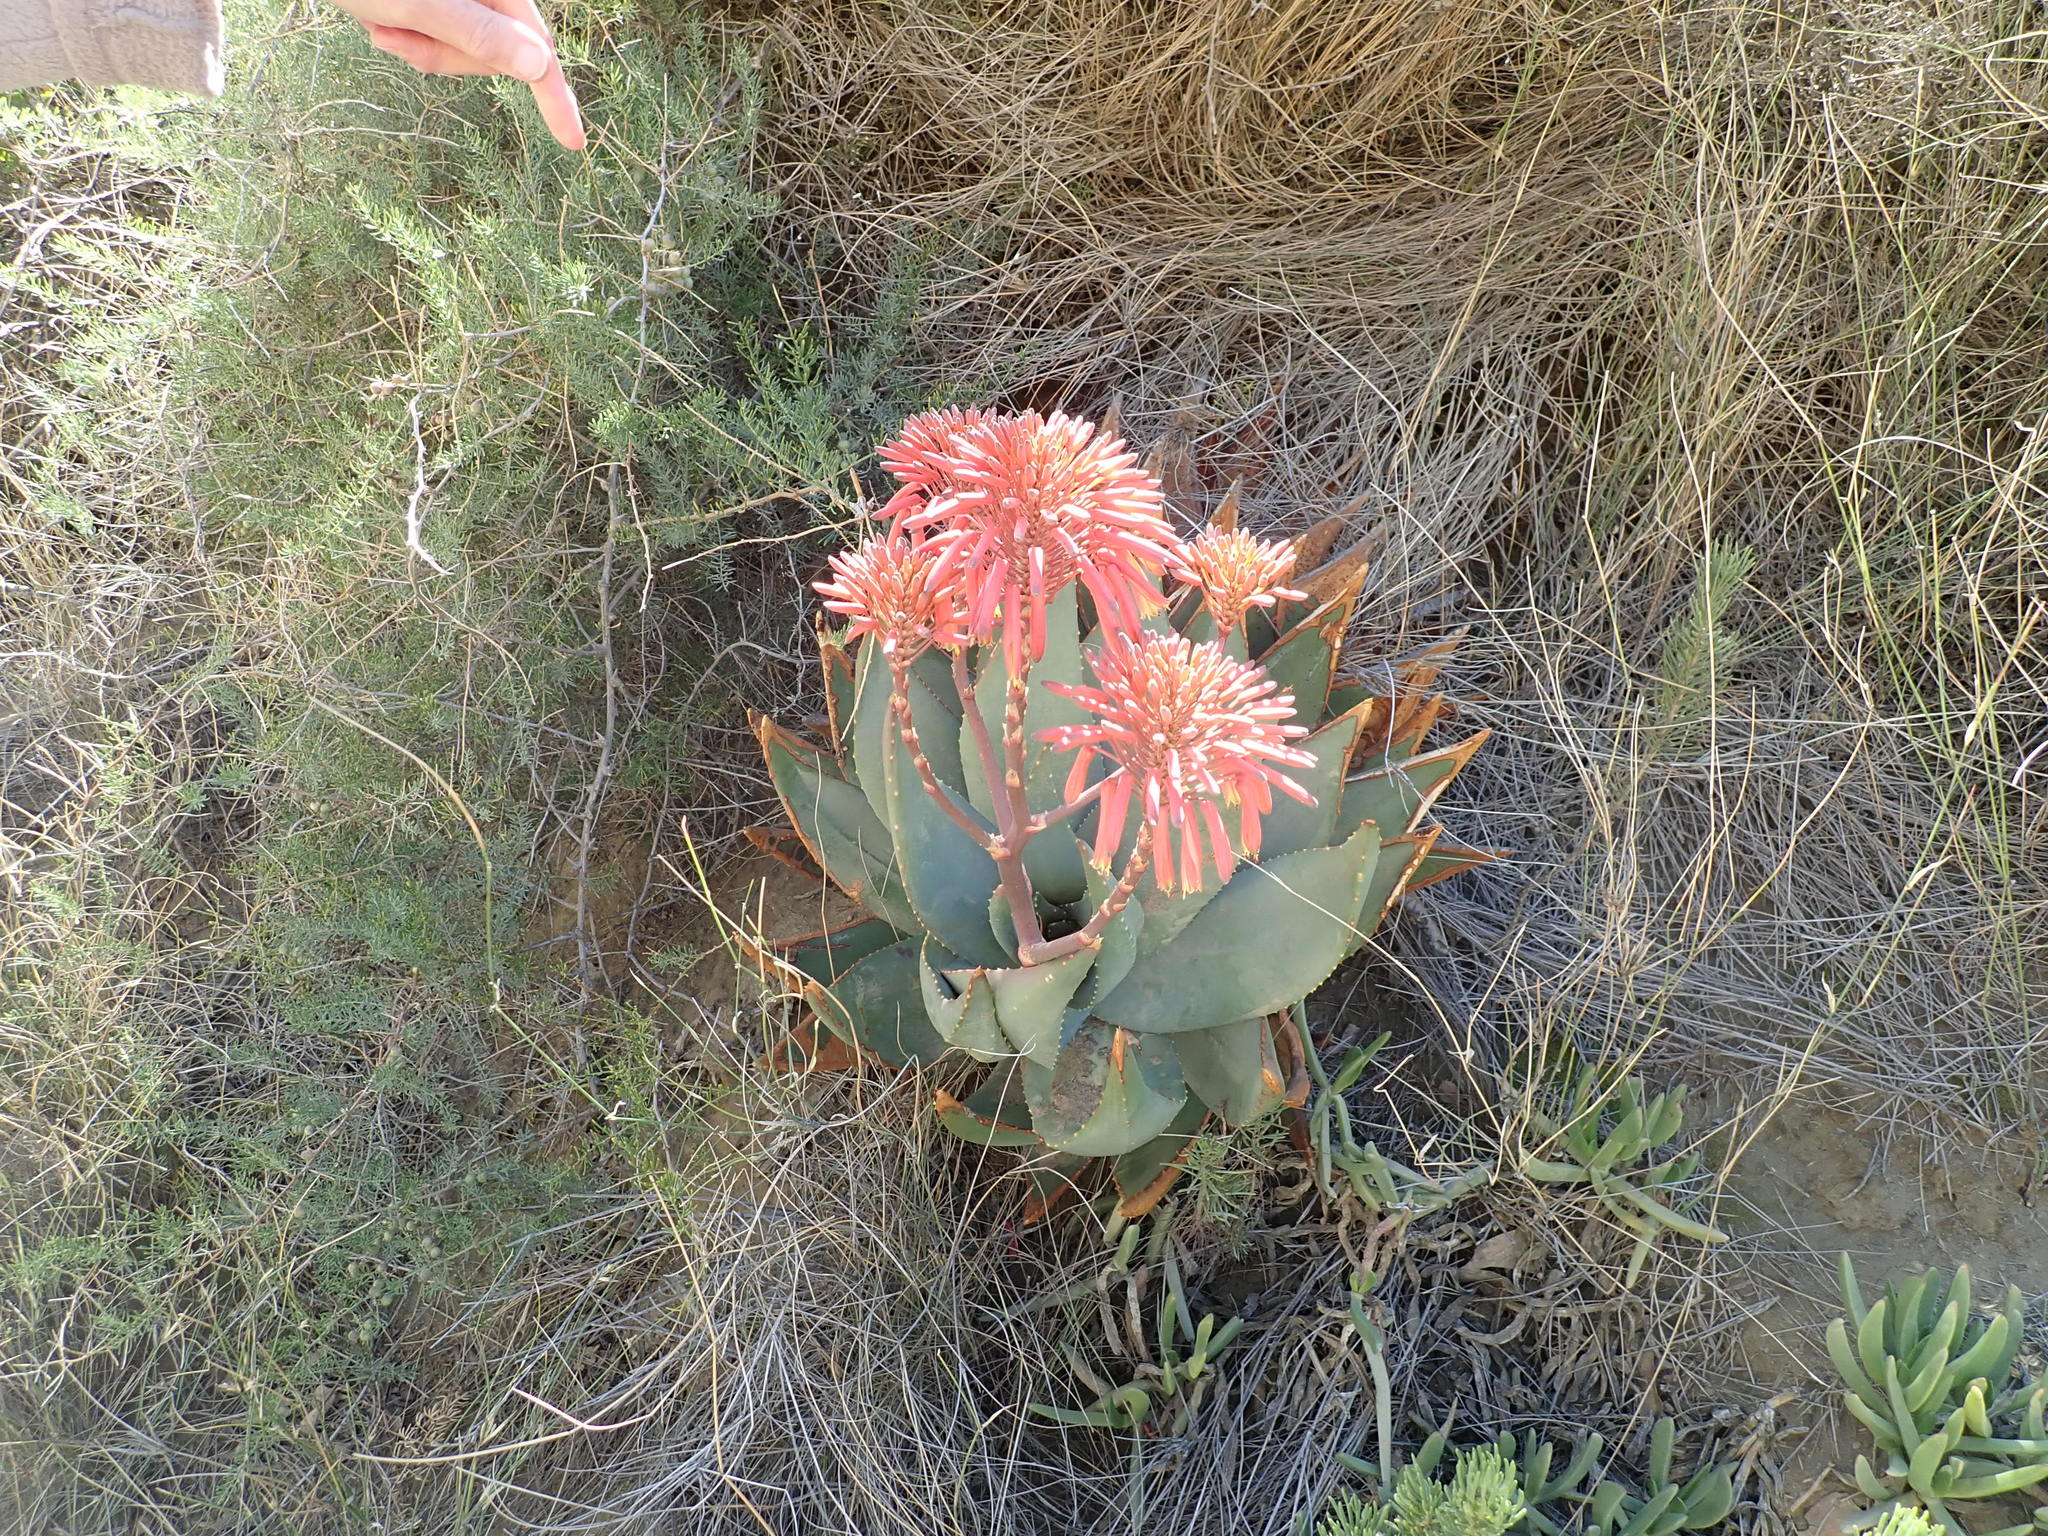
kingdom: Plantae
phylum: Tracheophyta
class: Liliopsida
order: Asparagales
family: Asphodelaceae
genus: Aloe
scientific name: Aloe comptonii
